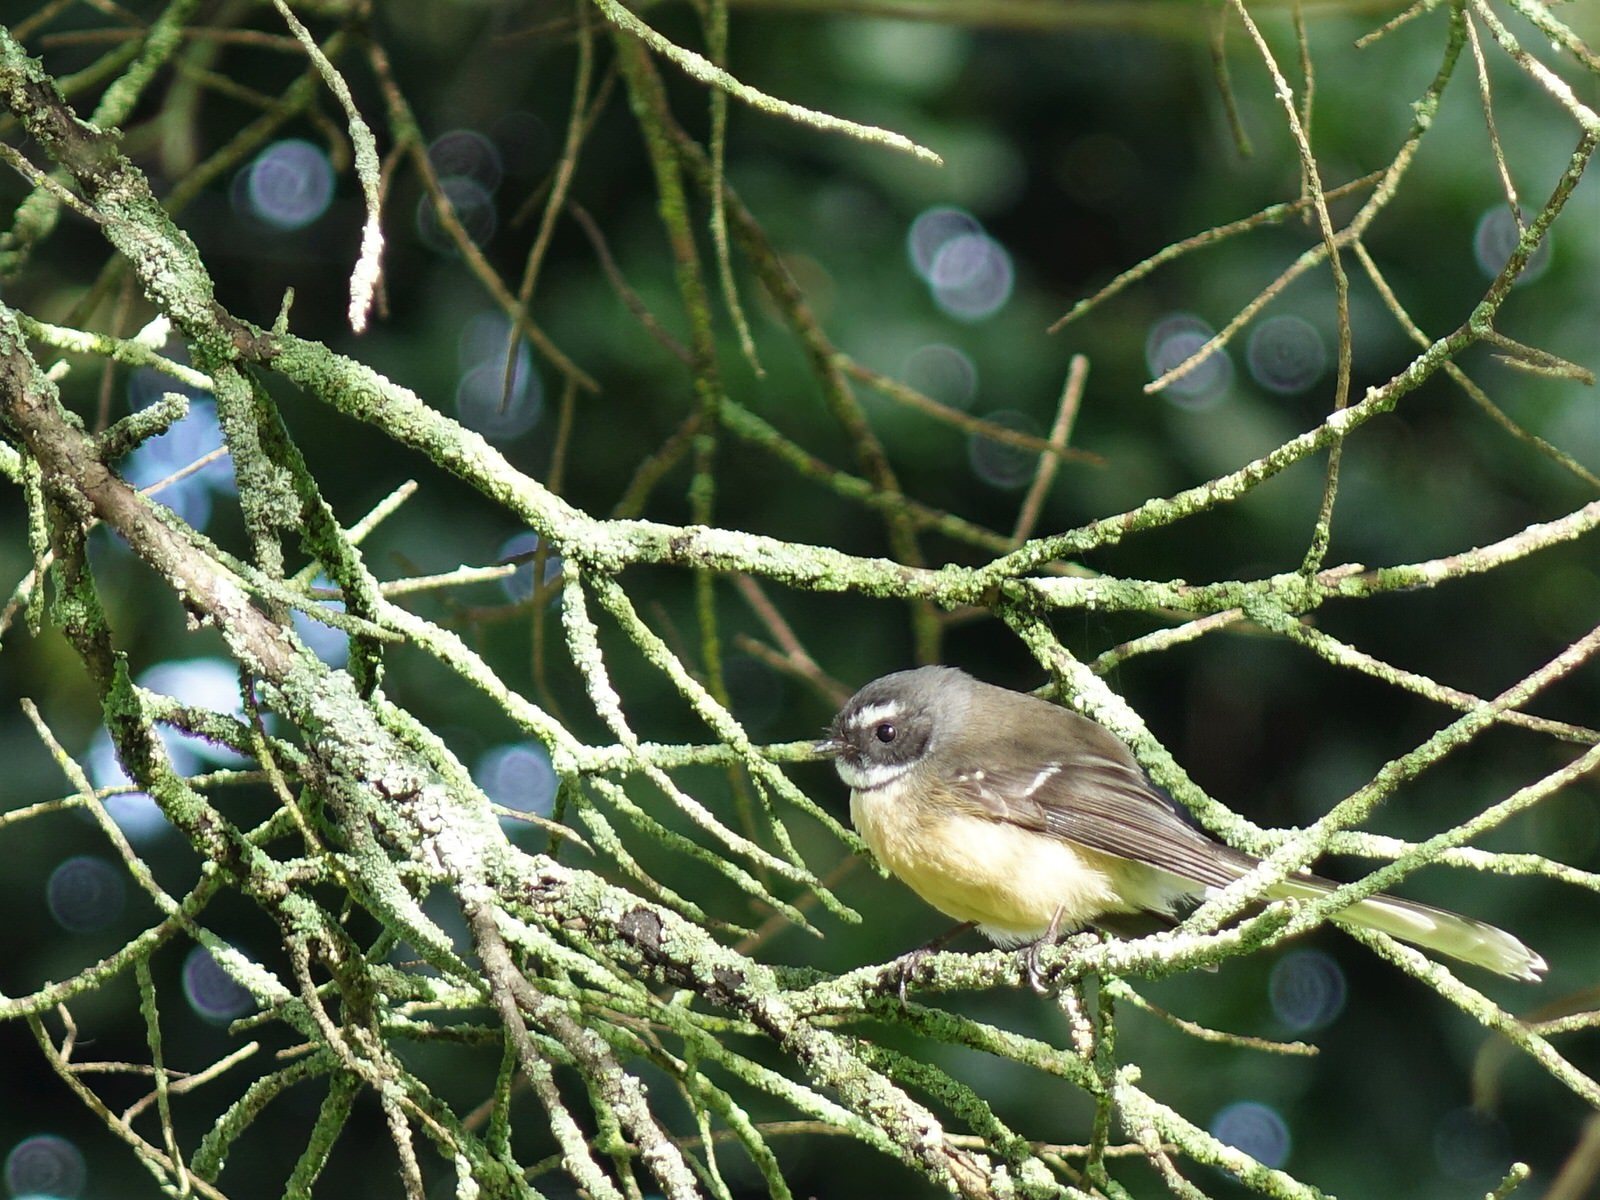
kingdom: Animalia
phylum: Chordata
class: Aves
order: Passeriformes
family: Rhipiduridae
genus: Rhipidura
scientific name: Rhipidura fuliginosa
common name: New zealand fantail
